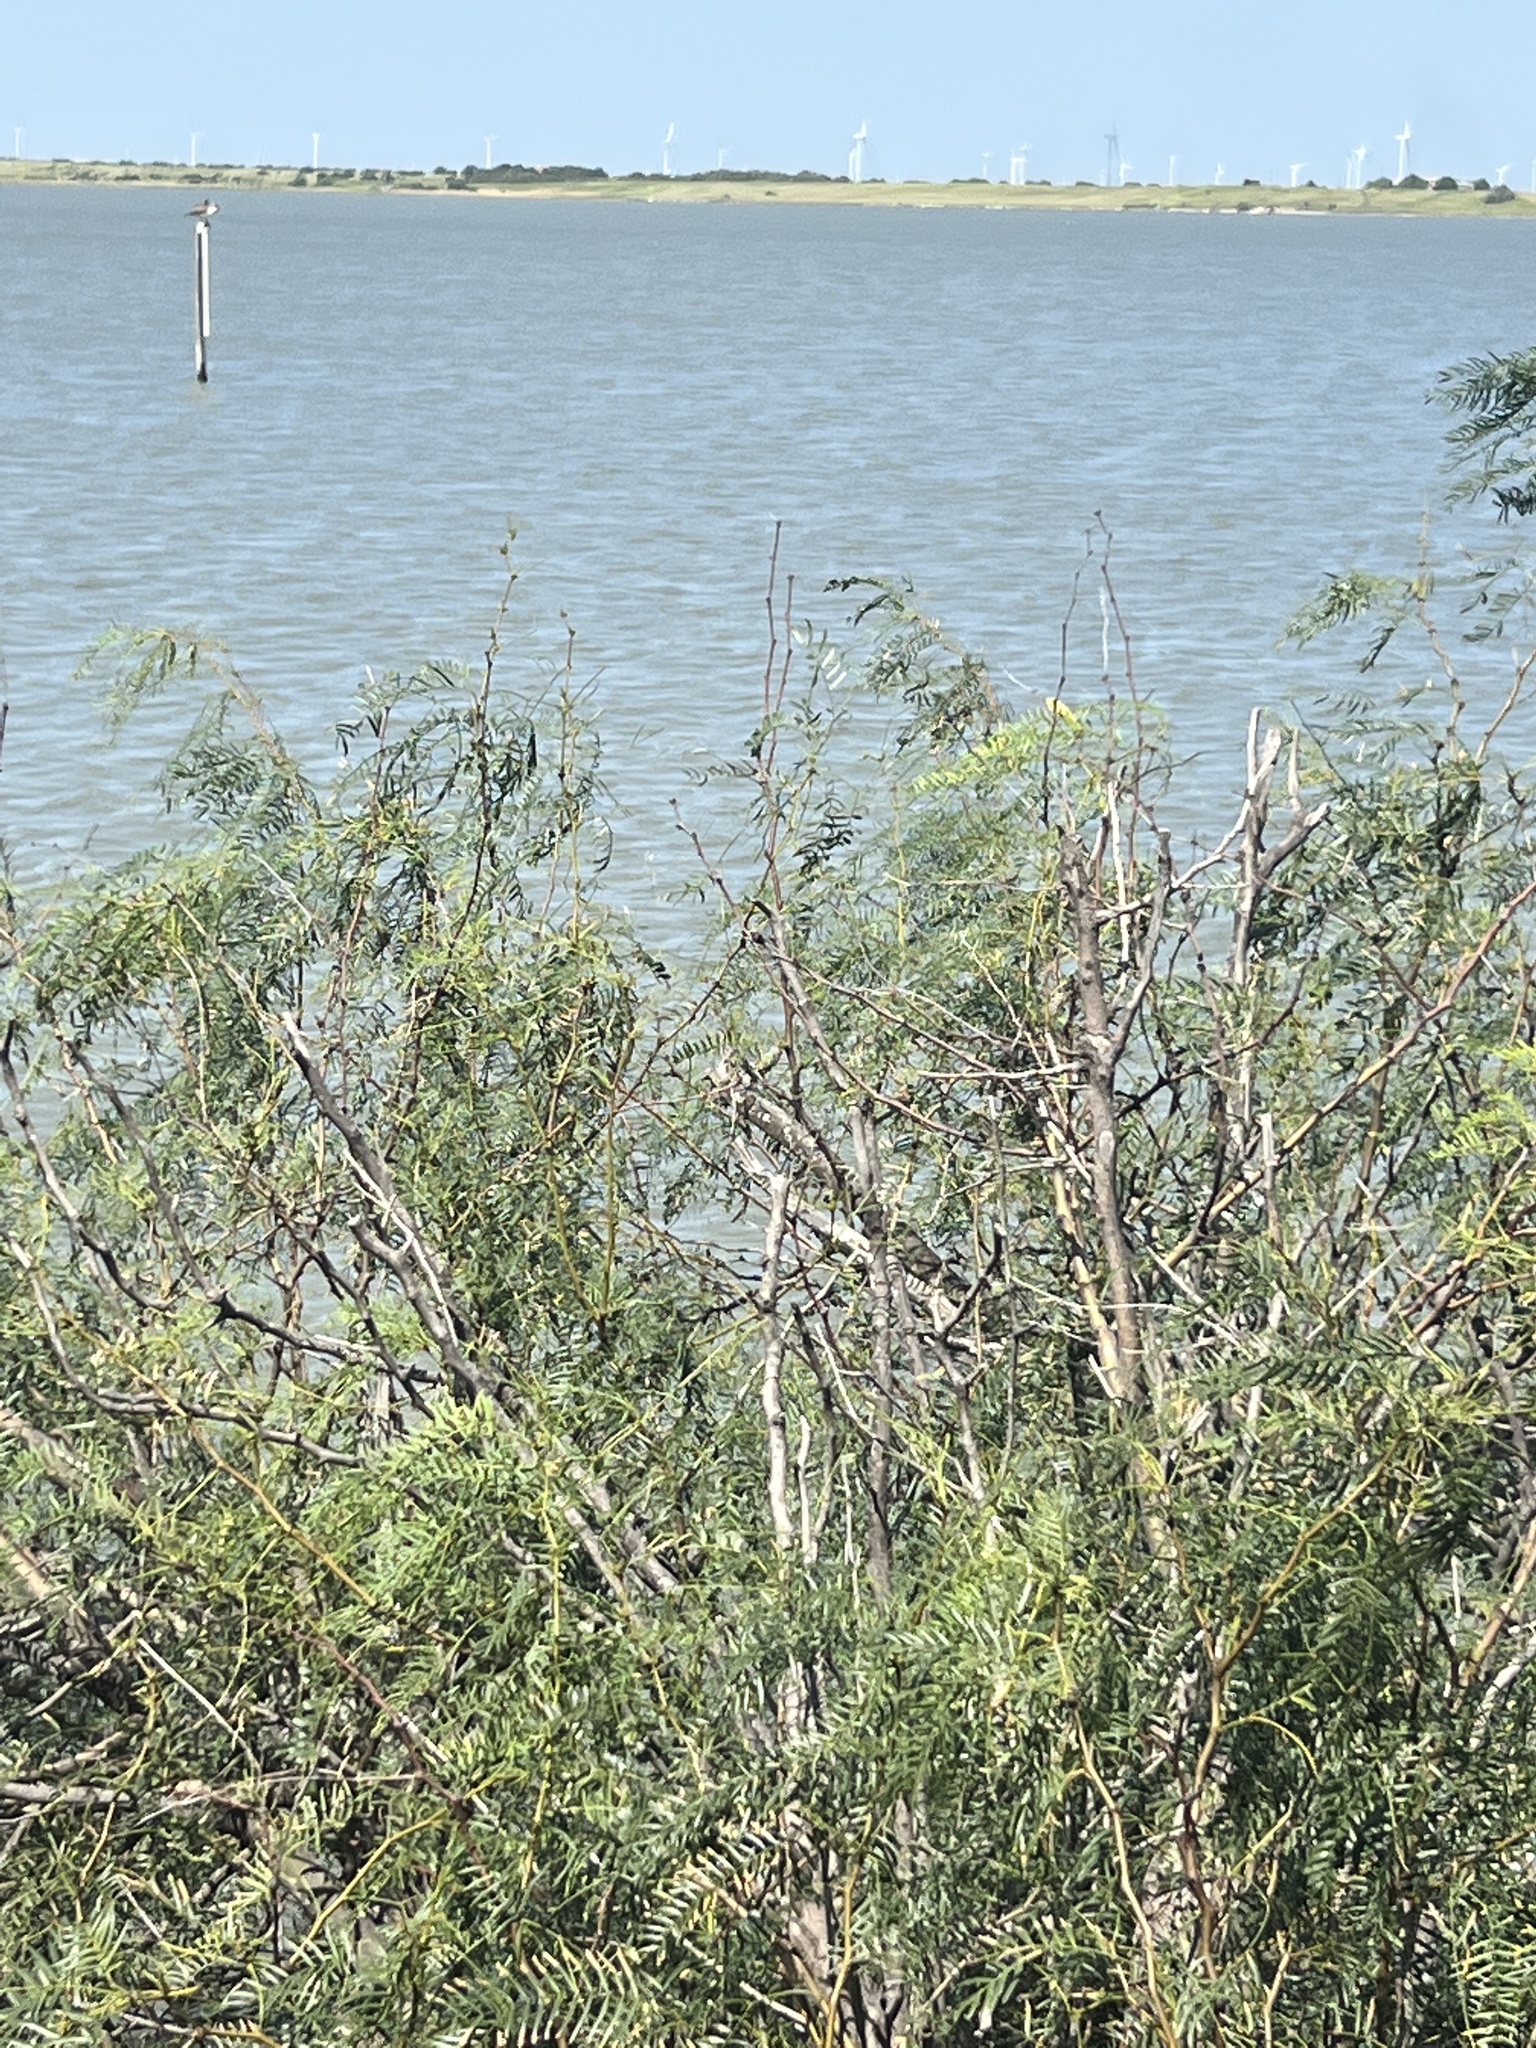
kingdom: Plantae
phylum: Tracheophyta
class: Magnoliopsida
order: Fabales
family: Fabaceae
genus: Prosopis
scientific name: Prosopis glandulosa
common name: Honey mesquite
